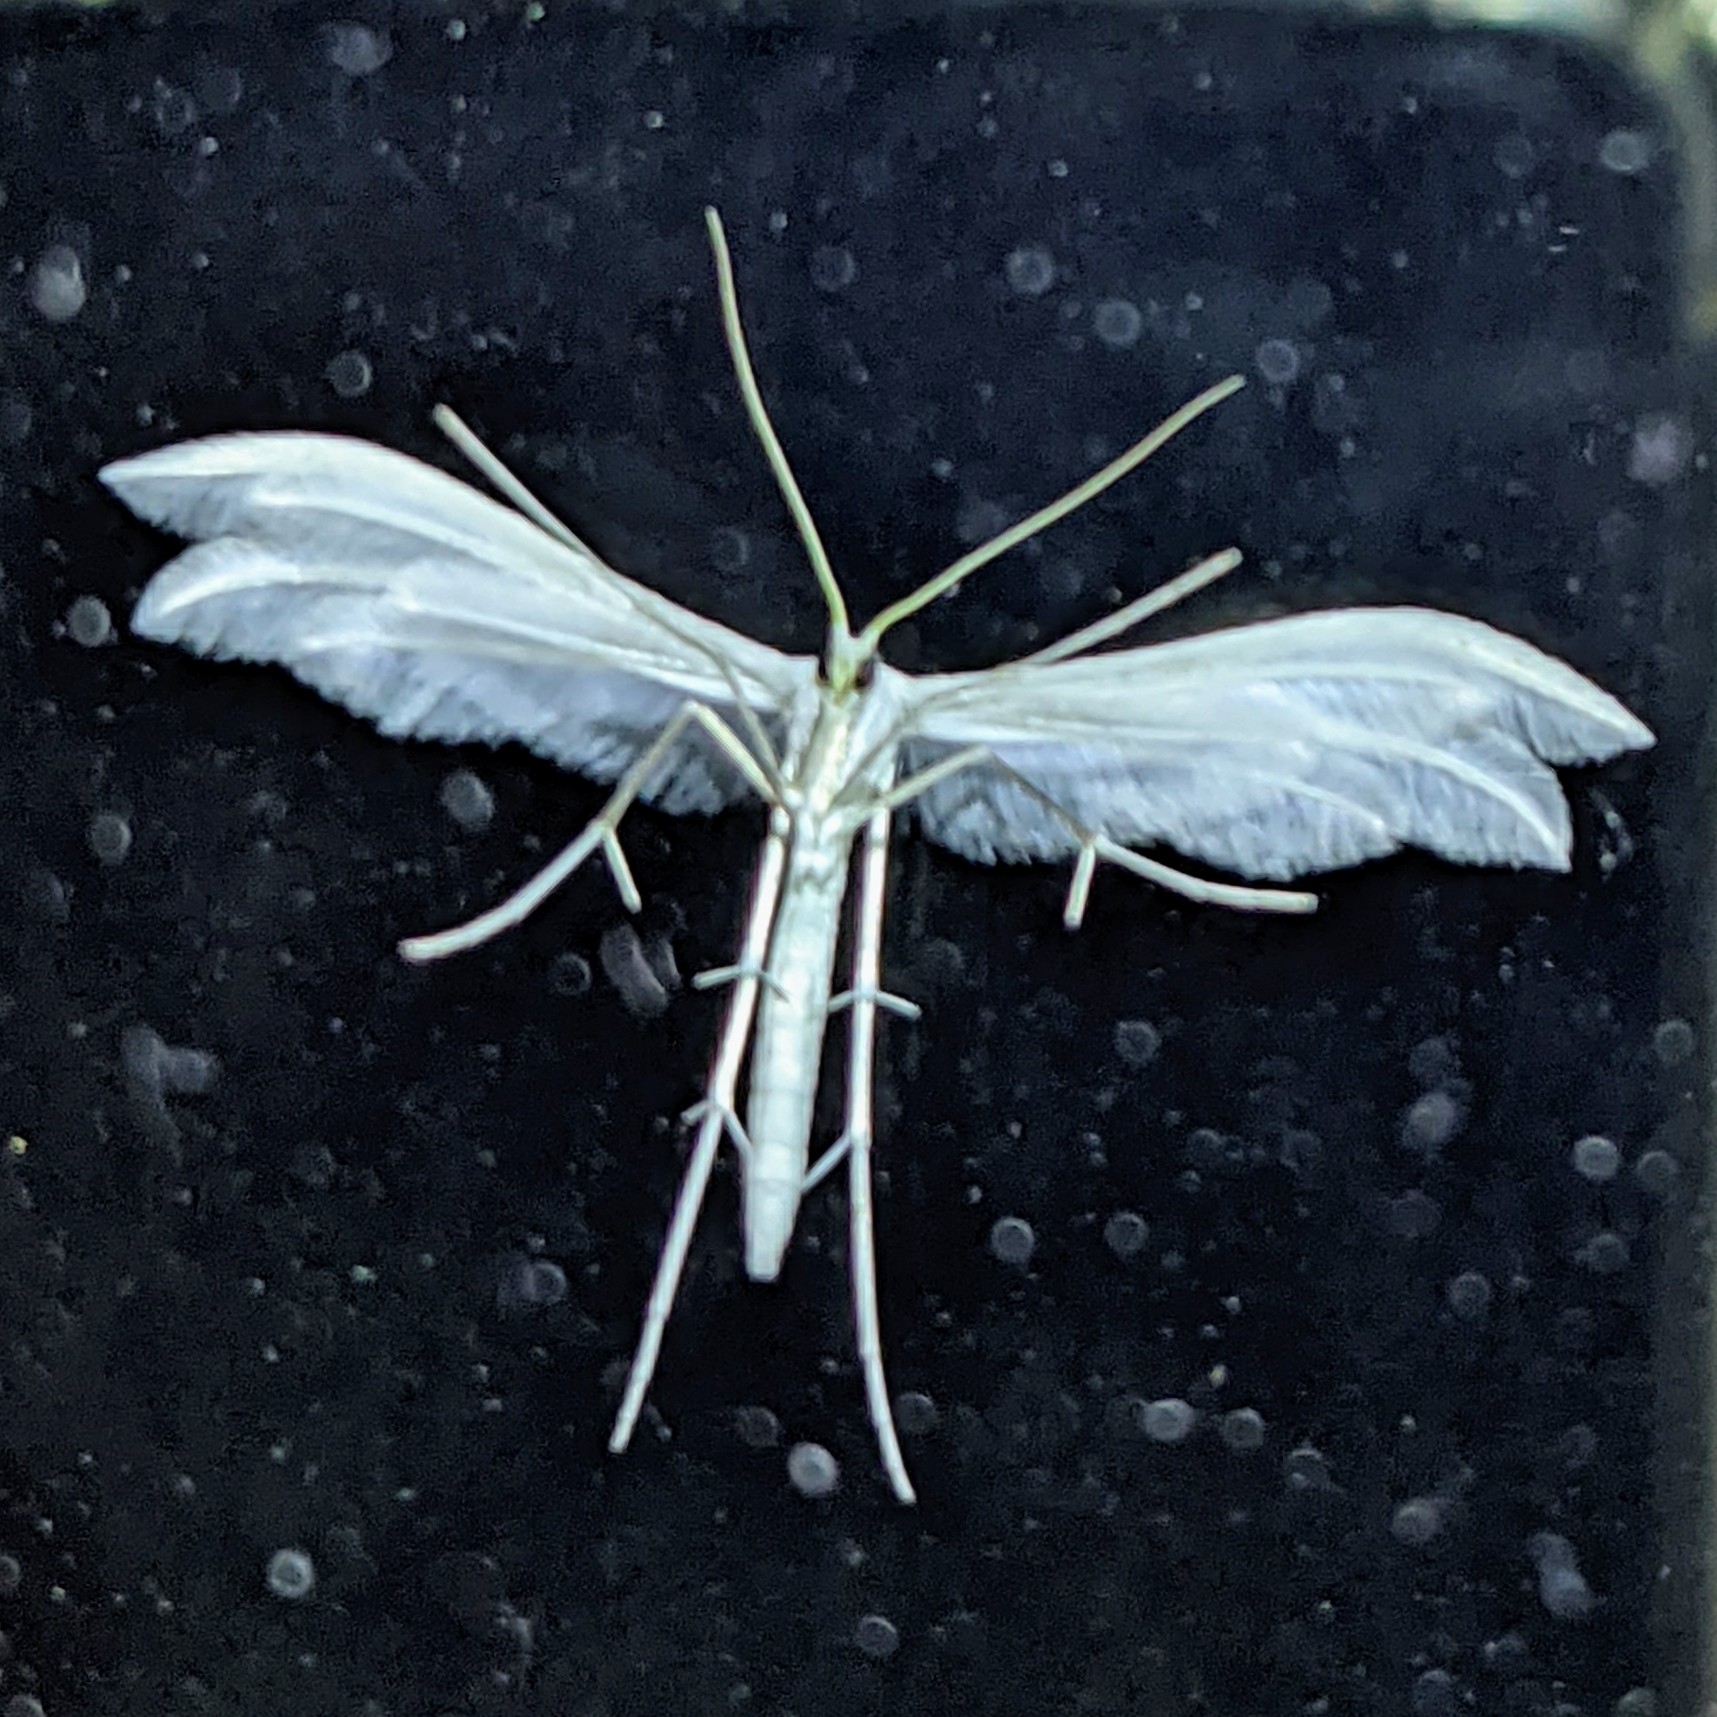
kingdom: Animalia
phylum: Arthropoda
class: Insecta
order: Lepidoptera
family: Pterophoridae
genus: Pterophorus
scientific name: Pterophorus pentadactyla
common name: White plume moth
